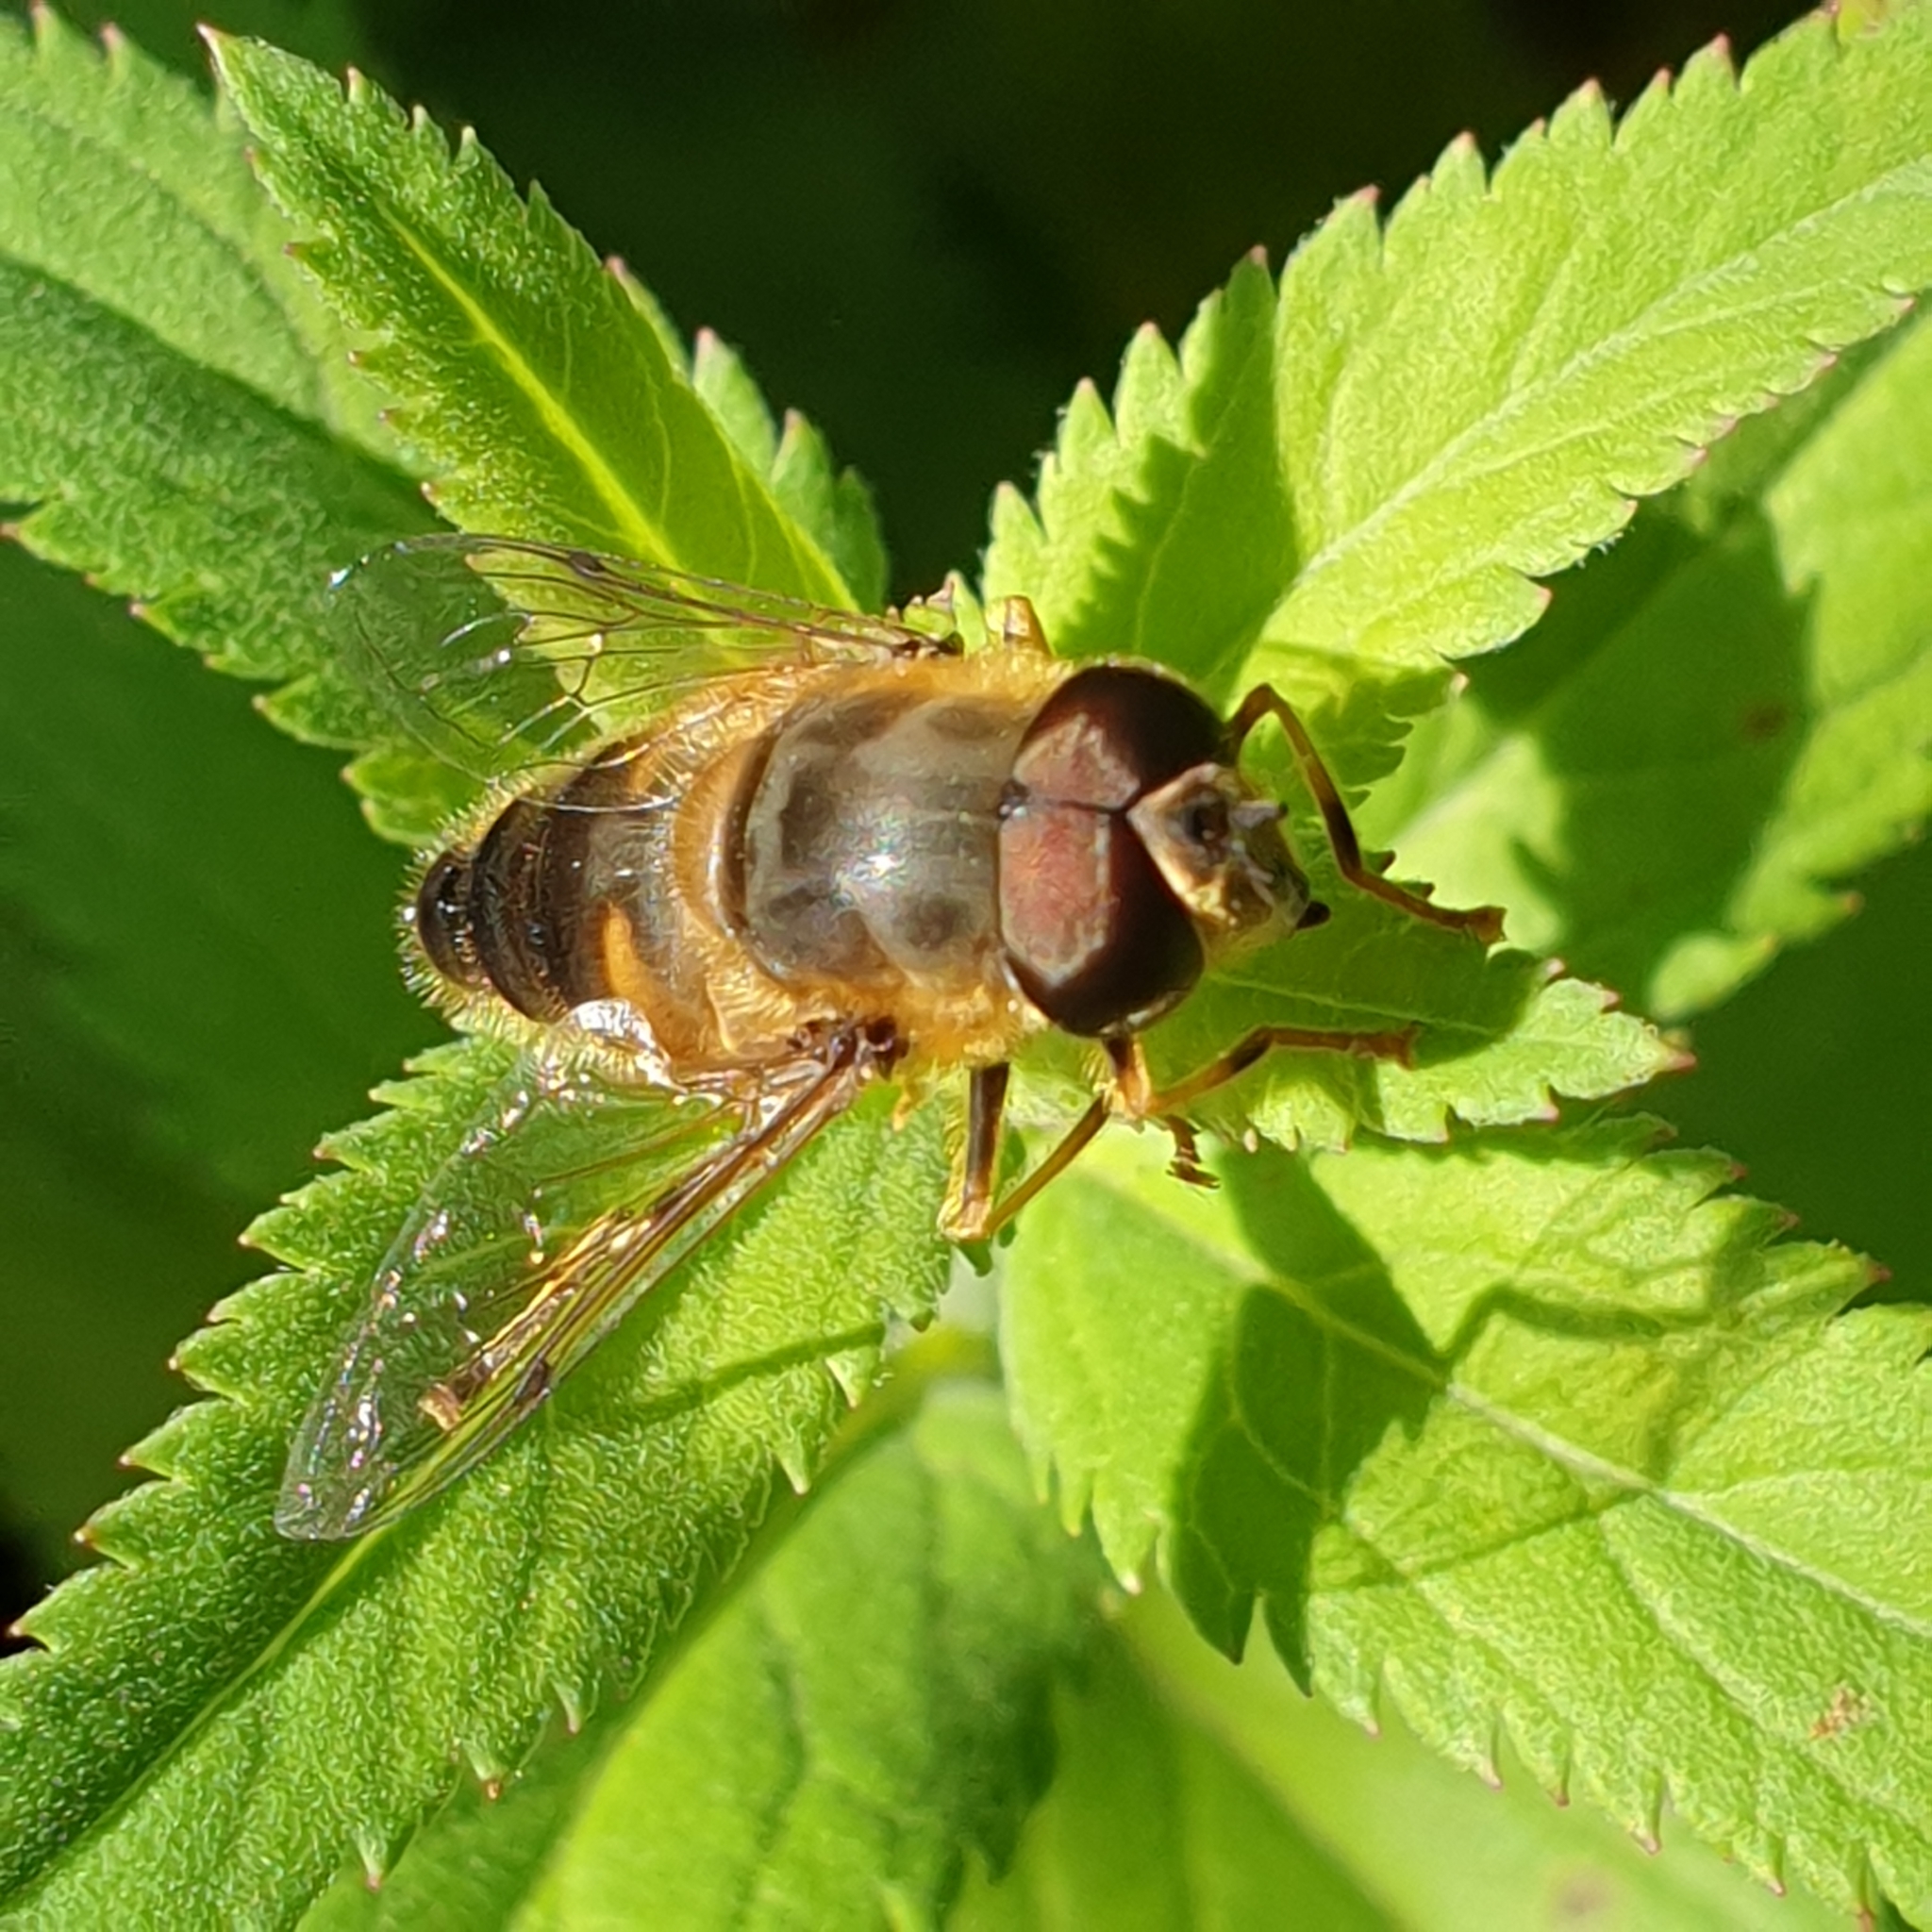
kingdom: Animalia
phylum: Arthropoda
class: Insecta
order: Diptera
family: Syrphidae
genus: Eristalis
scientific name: Eristalis pertinax
